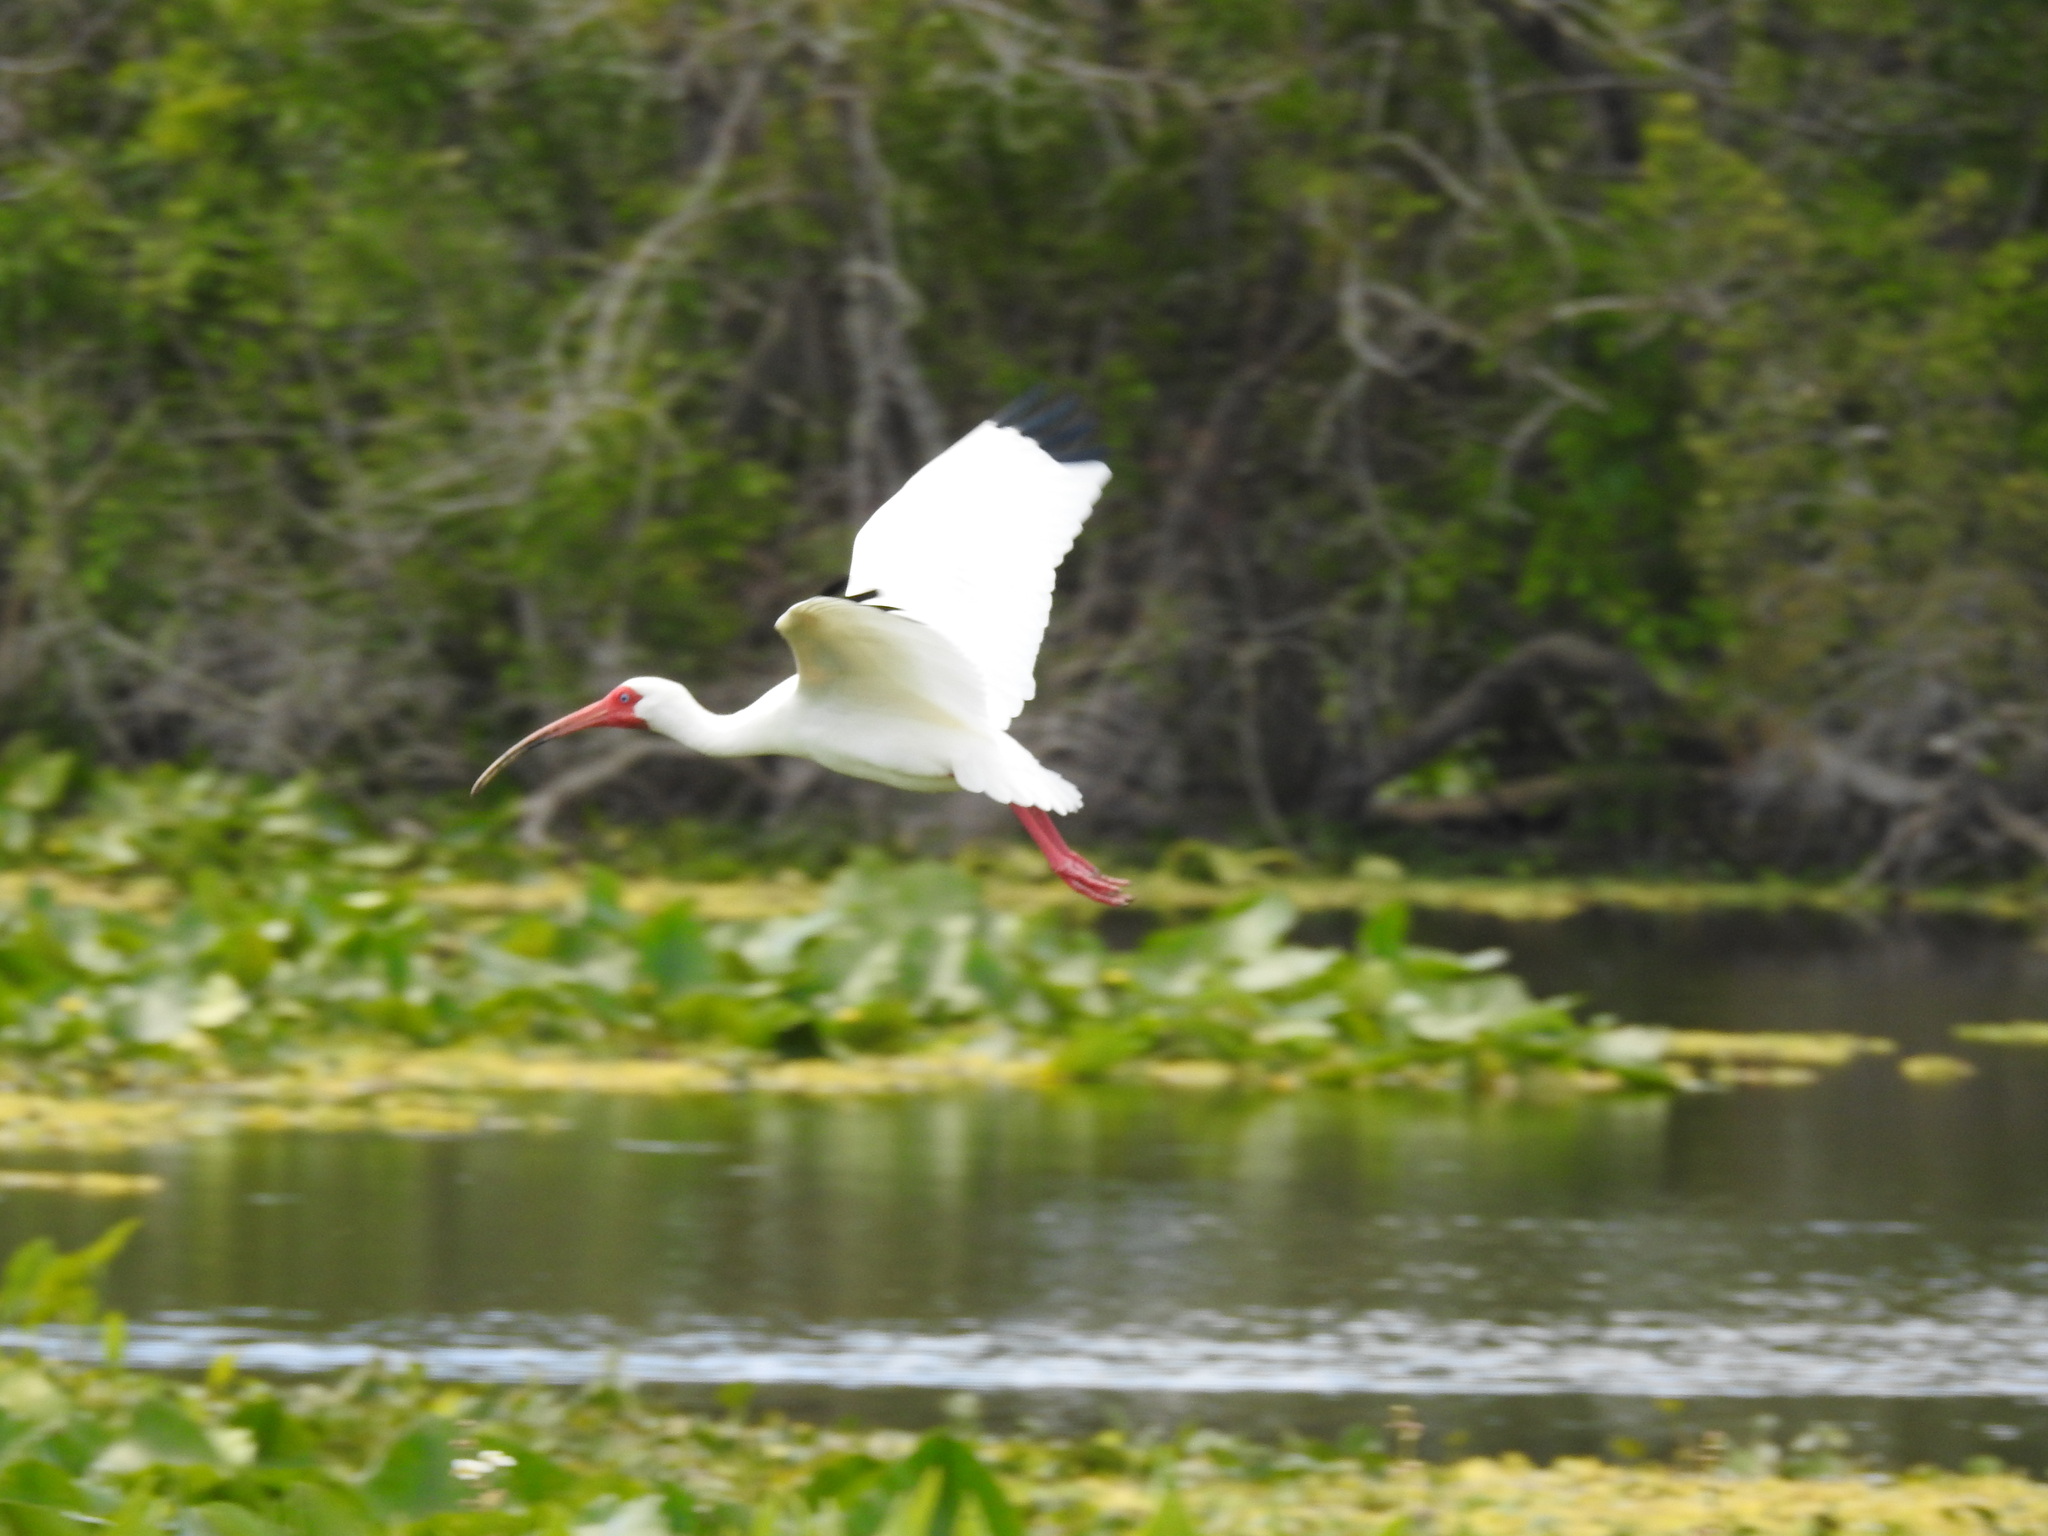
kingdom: Animalia
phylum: Chordata
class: Aves
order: Pelecaniformes
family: Threskiornithidae
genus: Eudocimus
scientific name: Eudocimus albus
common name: White ibis
